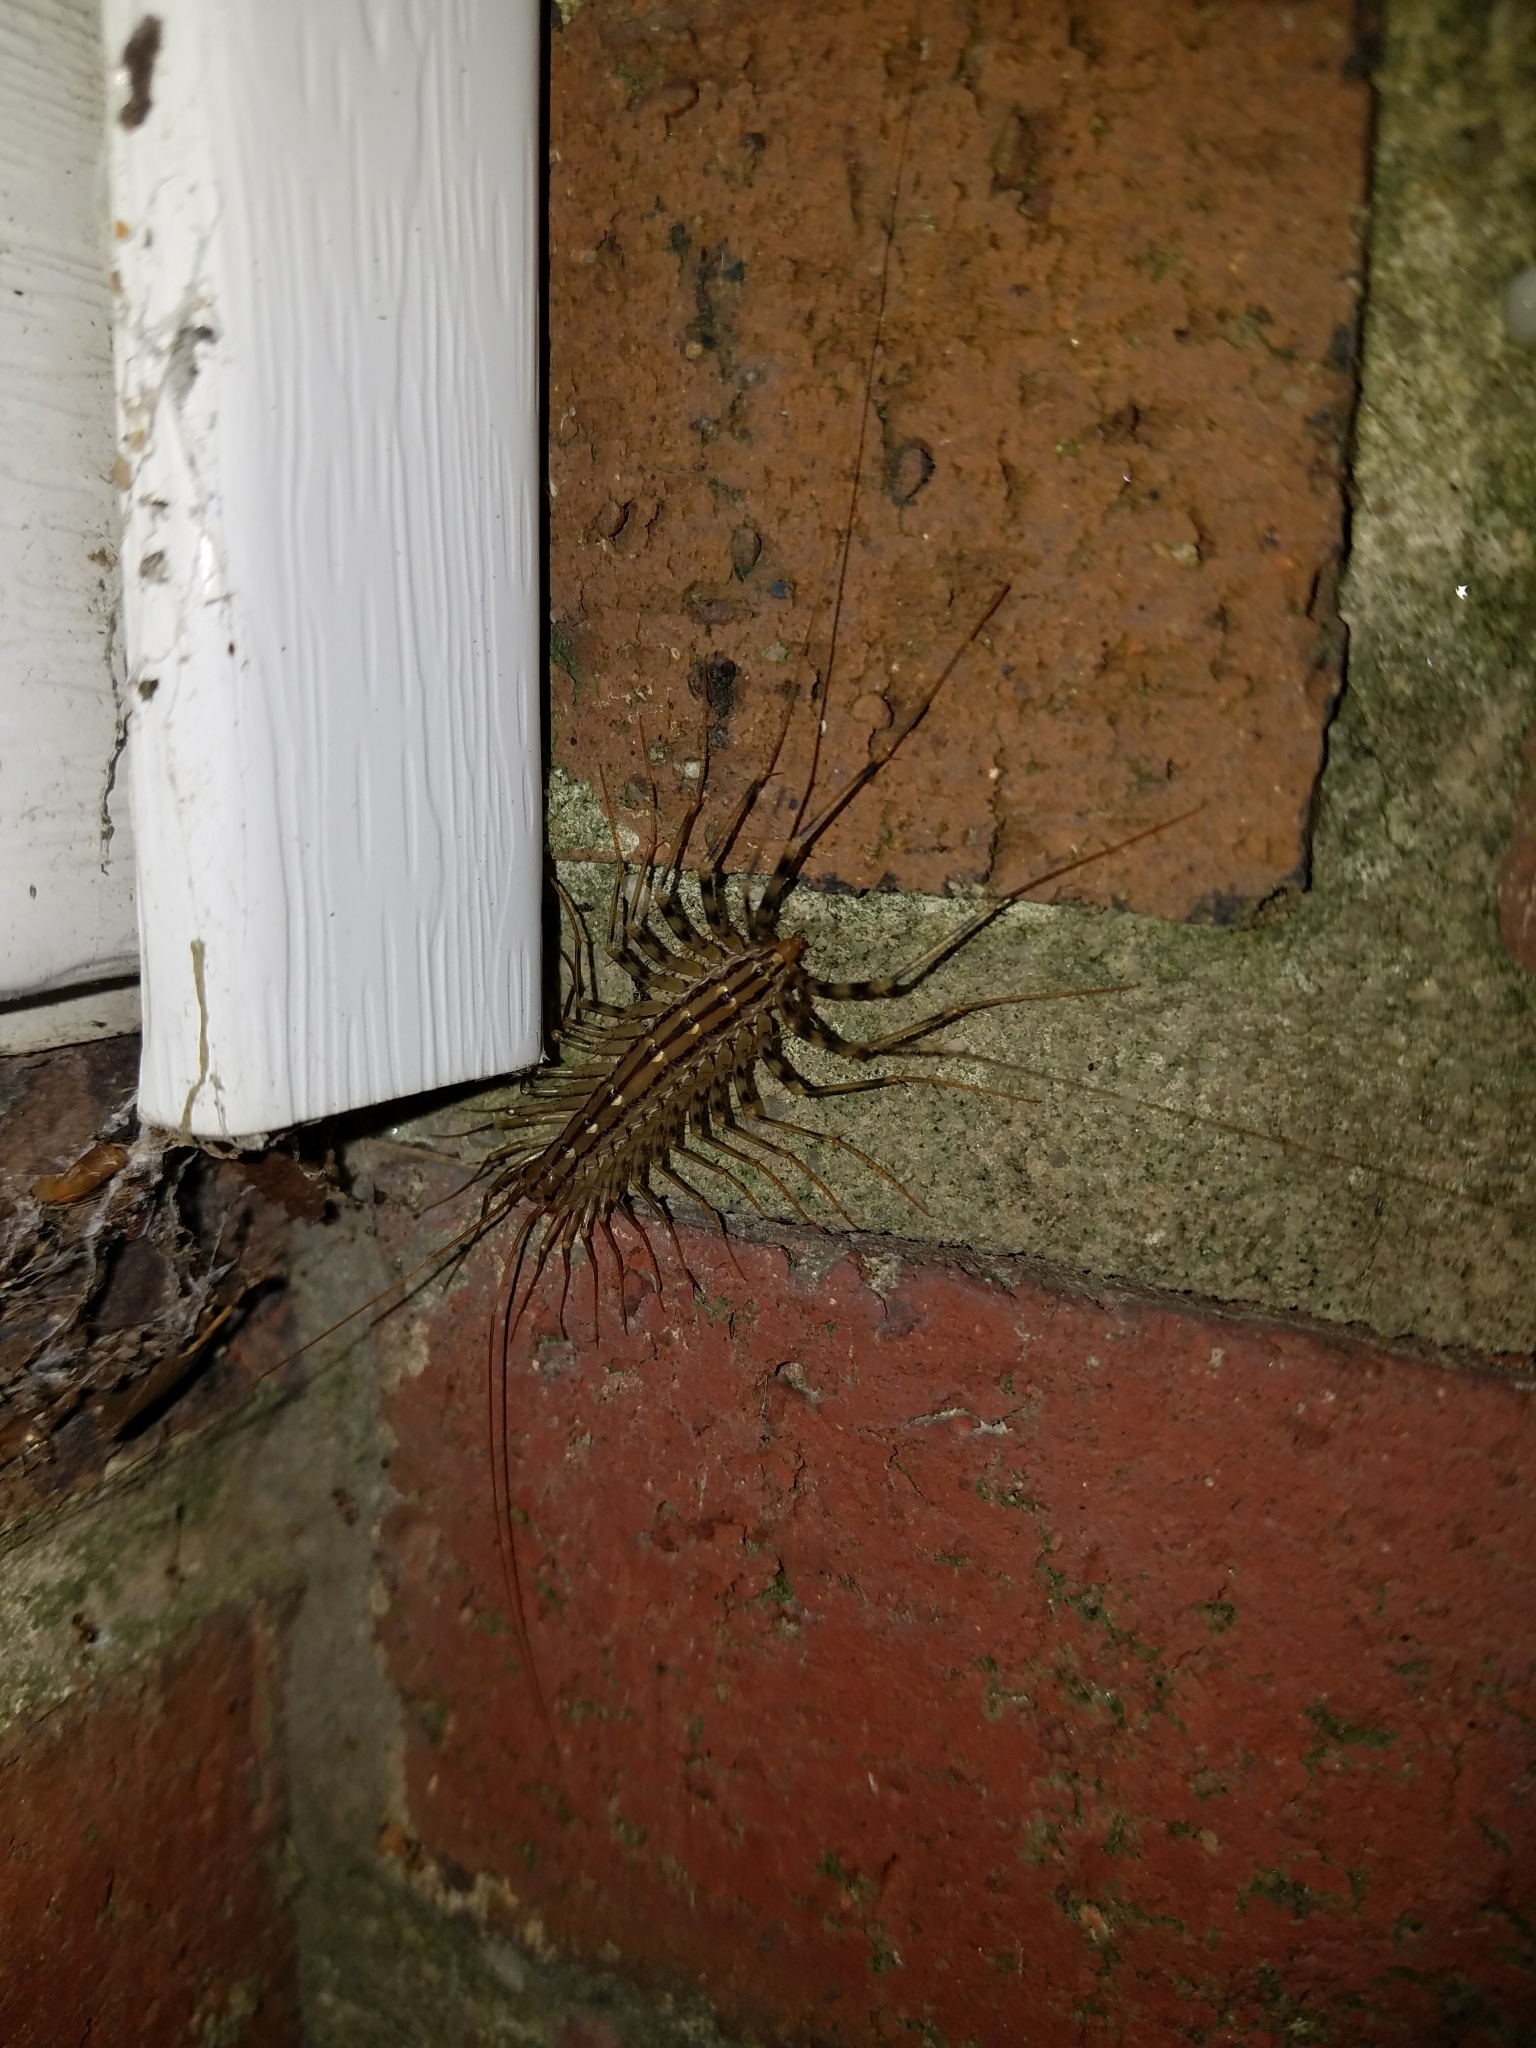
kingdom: Animalia
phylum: Arthropoda
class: Chilopoda
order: Scutigeromorpha
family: Scutigeridae
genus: Scutigera
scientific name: Scutigera coleoptrata
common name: House centipede
